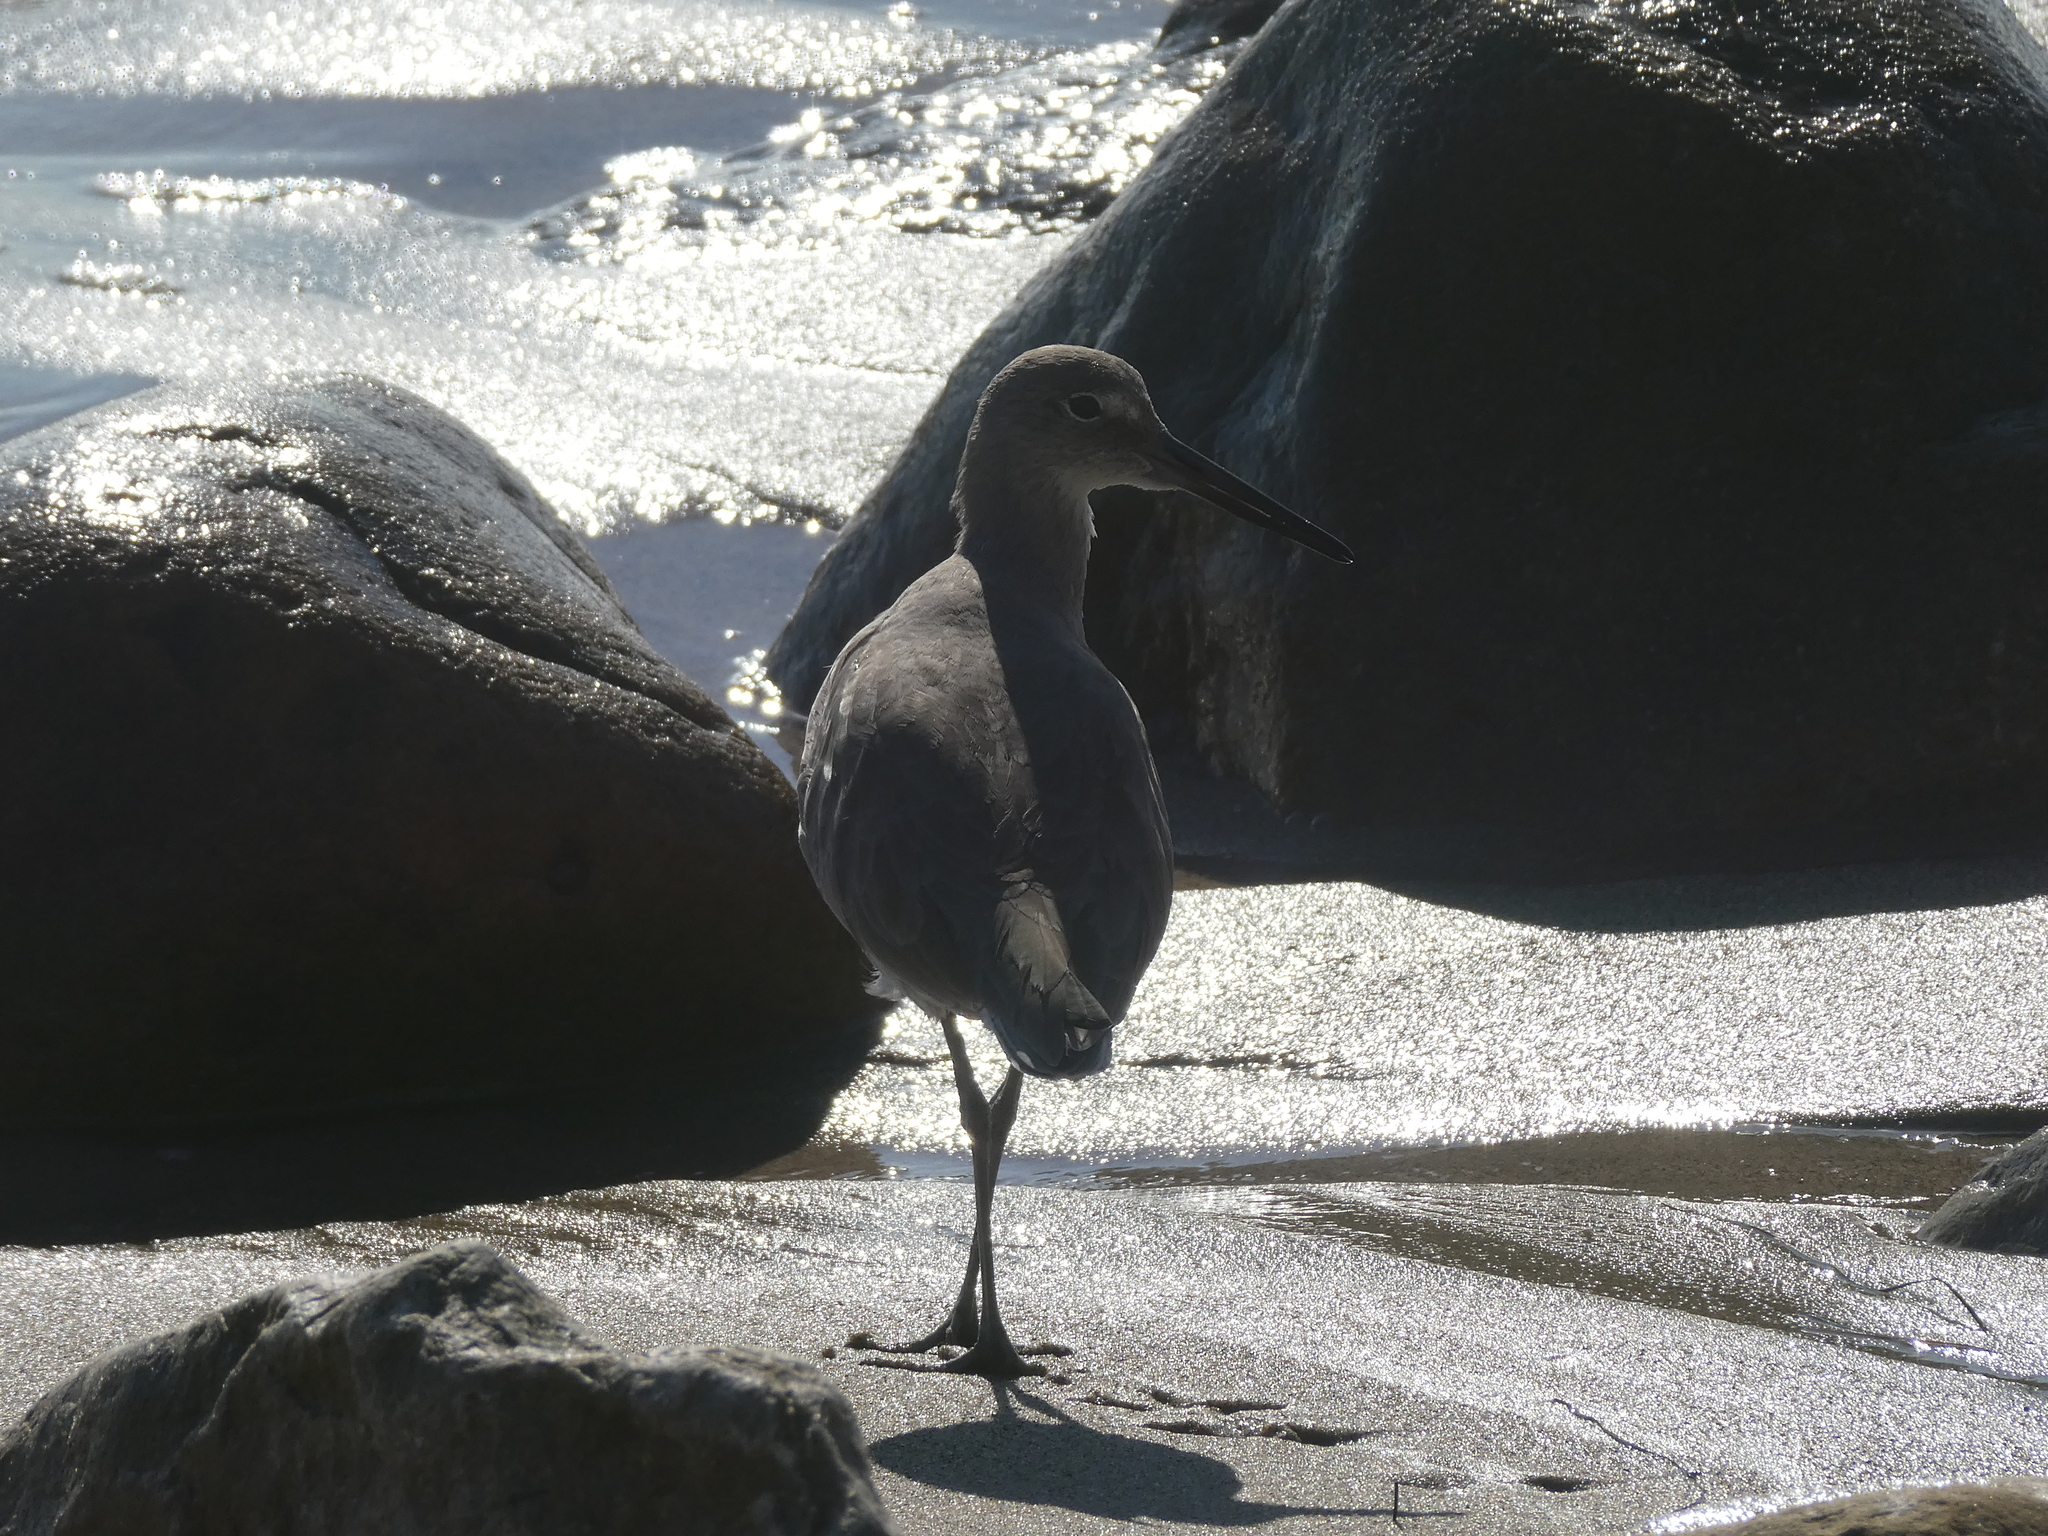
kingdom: Animalia
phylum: Chordata
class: Aves
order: Charadriiformes
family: Scolopacidae
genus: Tringa
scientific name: Tringa semipalmata
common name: Willet
